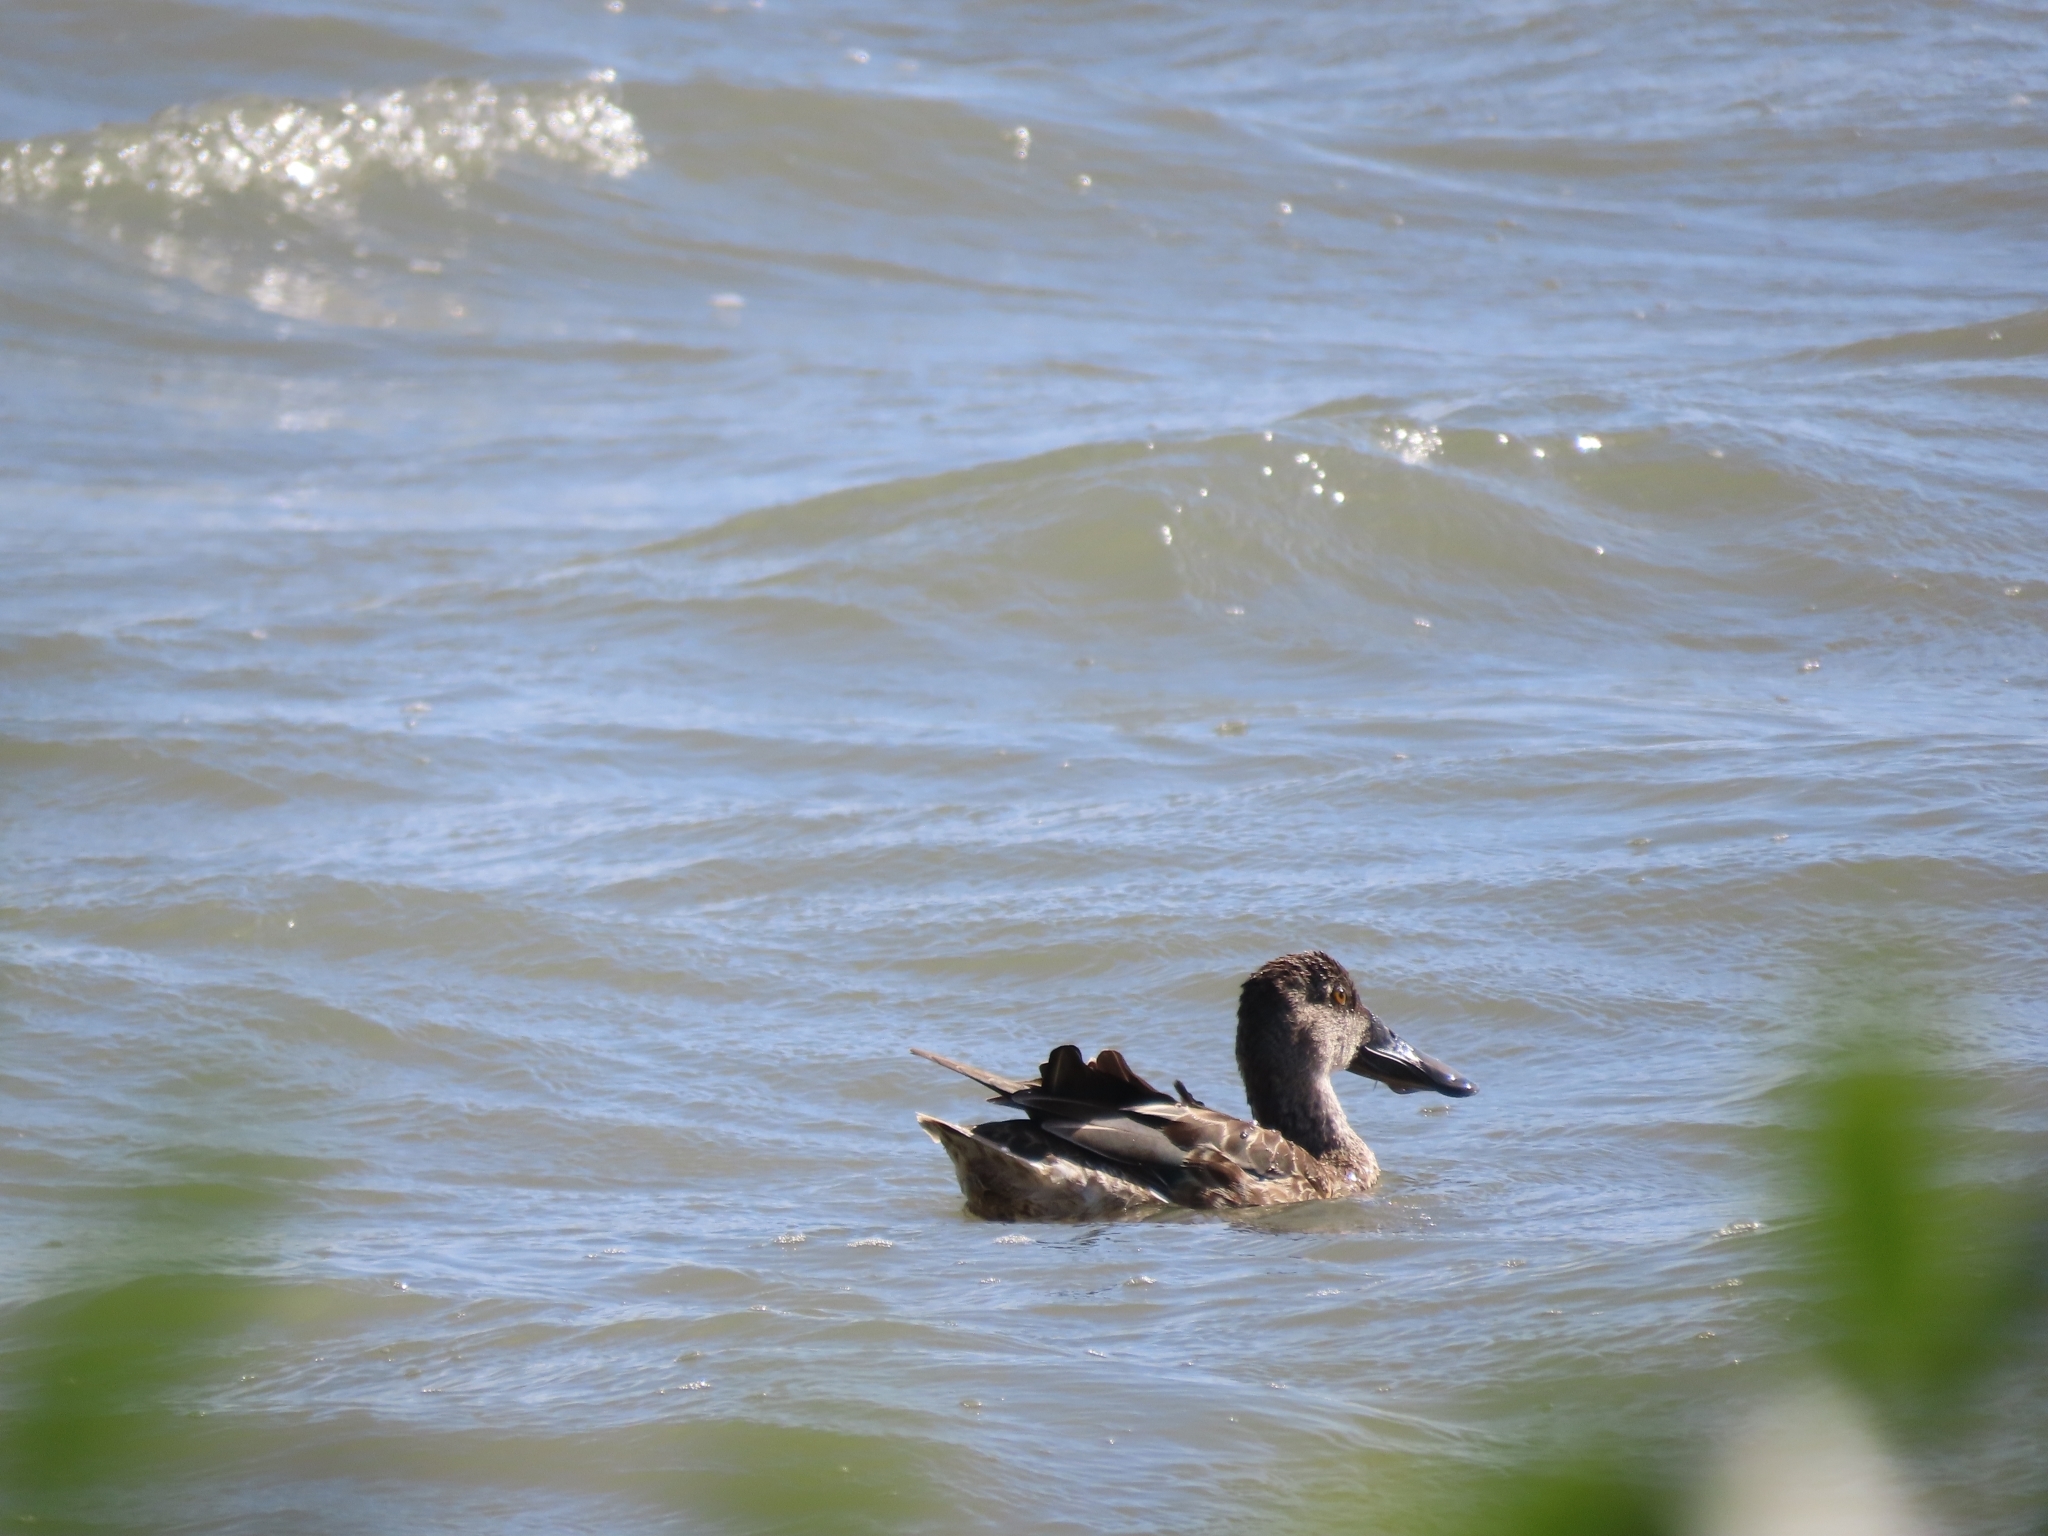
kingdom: Animalia
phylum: Chordata
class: Aves
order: Anseriformes
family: Anatidae
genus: Spatula
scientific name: Spatula clypeata
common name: Northern shoveler
